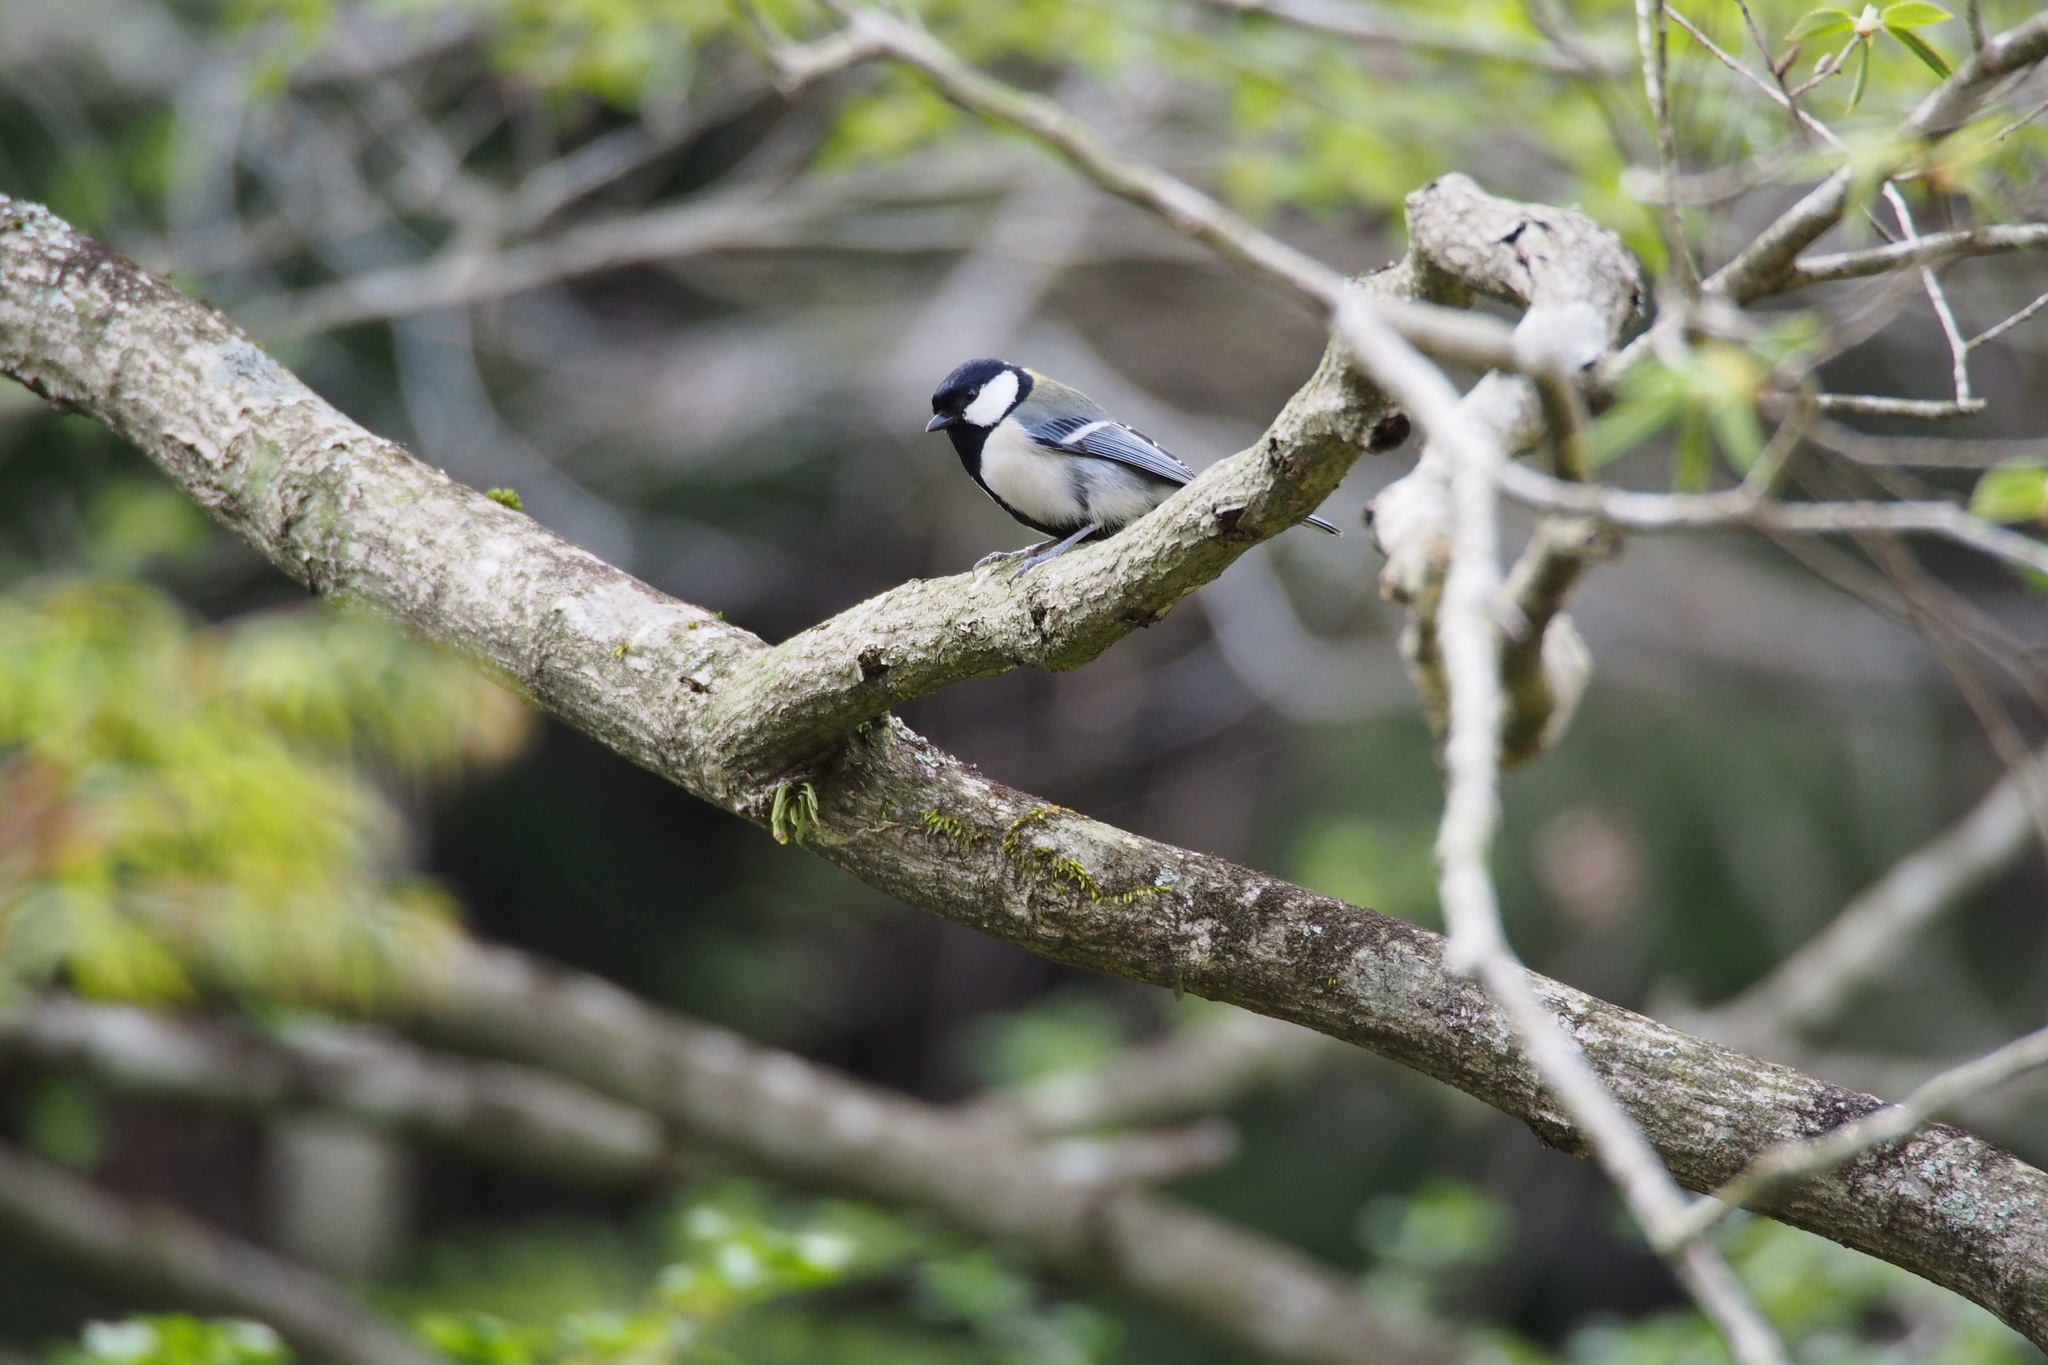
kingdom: Animalia
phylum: Chordata
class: Aves
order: Passeriformes
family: Paridae
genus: Parus
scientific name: Parus minor
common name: Japanese tit
